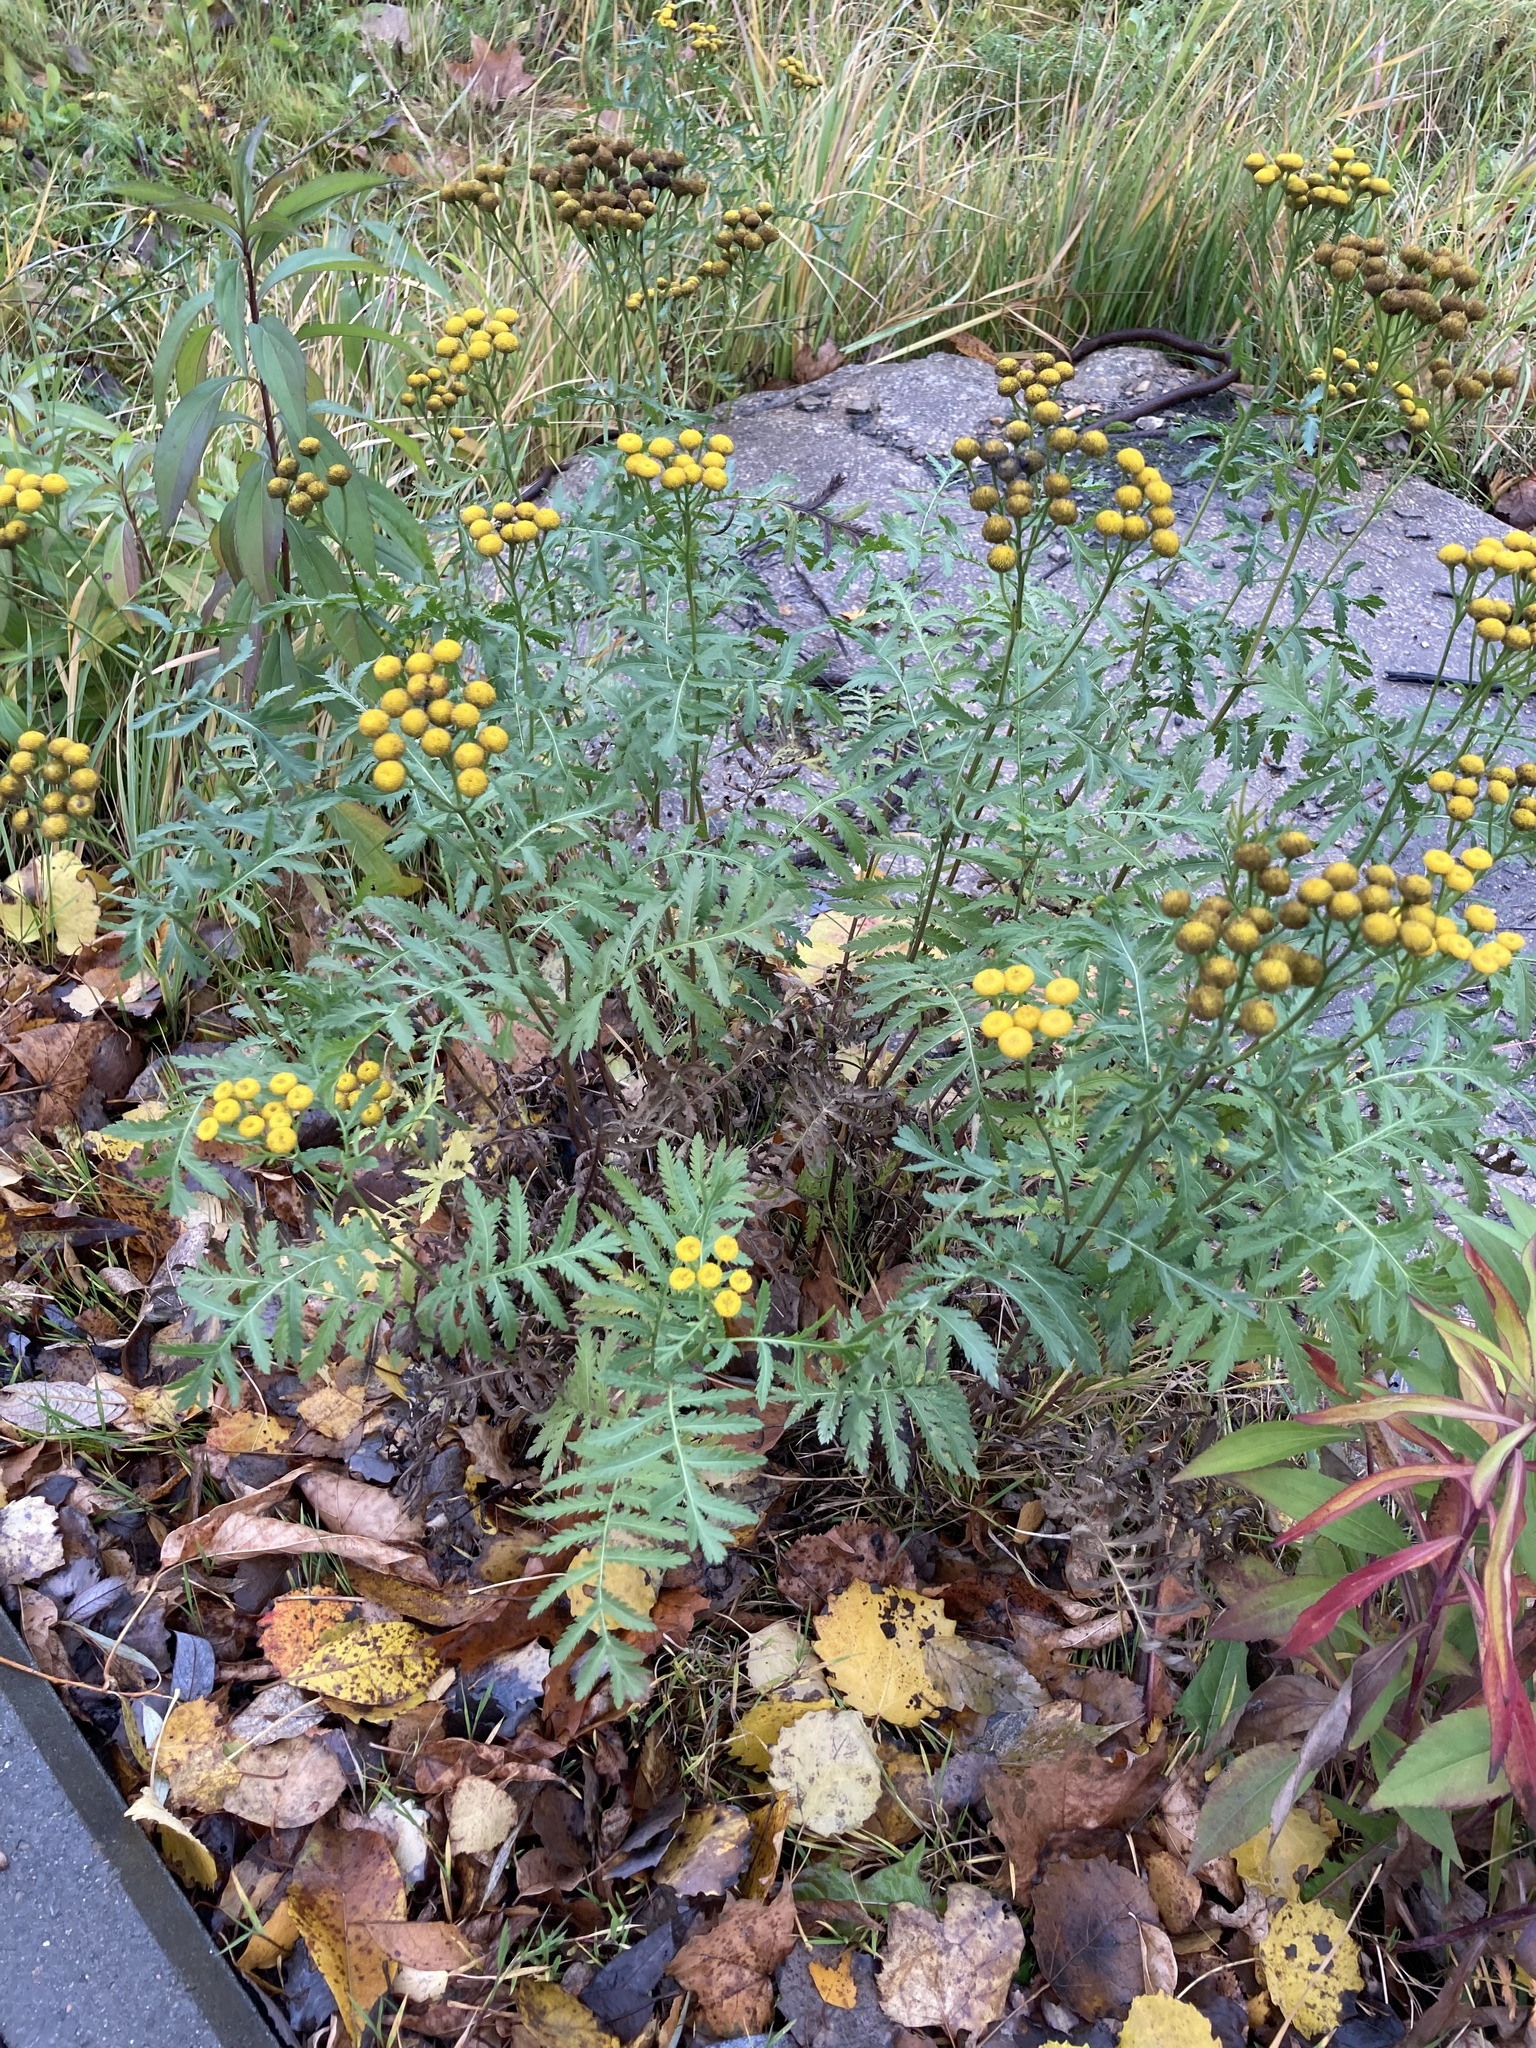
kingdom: Plantae
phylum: Tracheophyta
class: Magnoliopsida
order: Asterales
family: Asteraceae
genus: Tanacetum
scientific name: Tanacetum vulgare
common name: Common tansy
